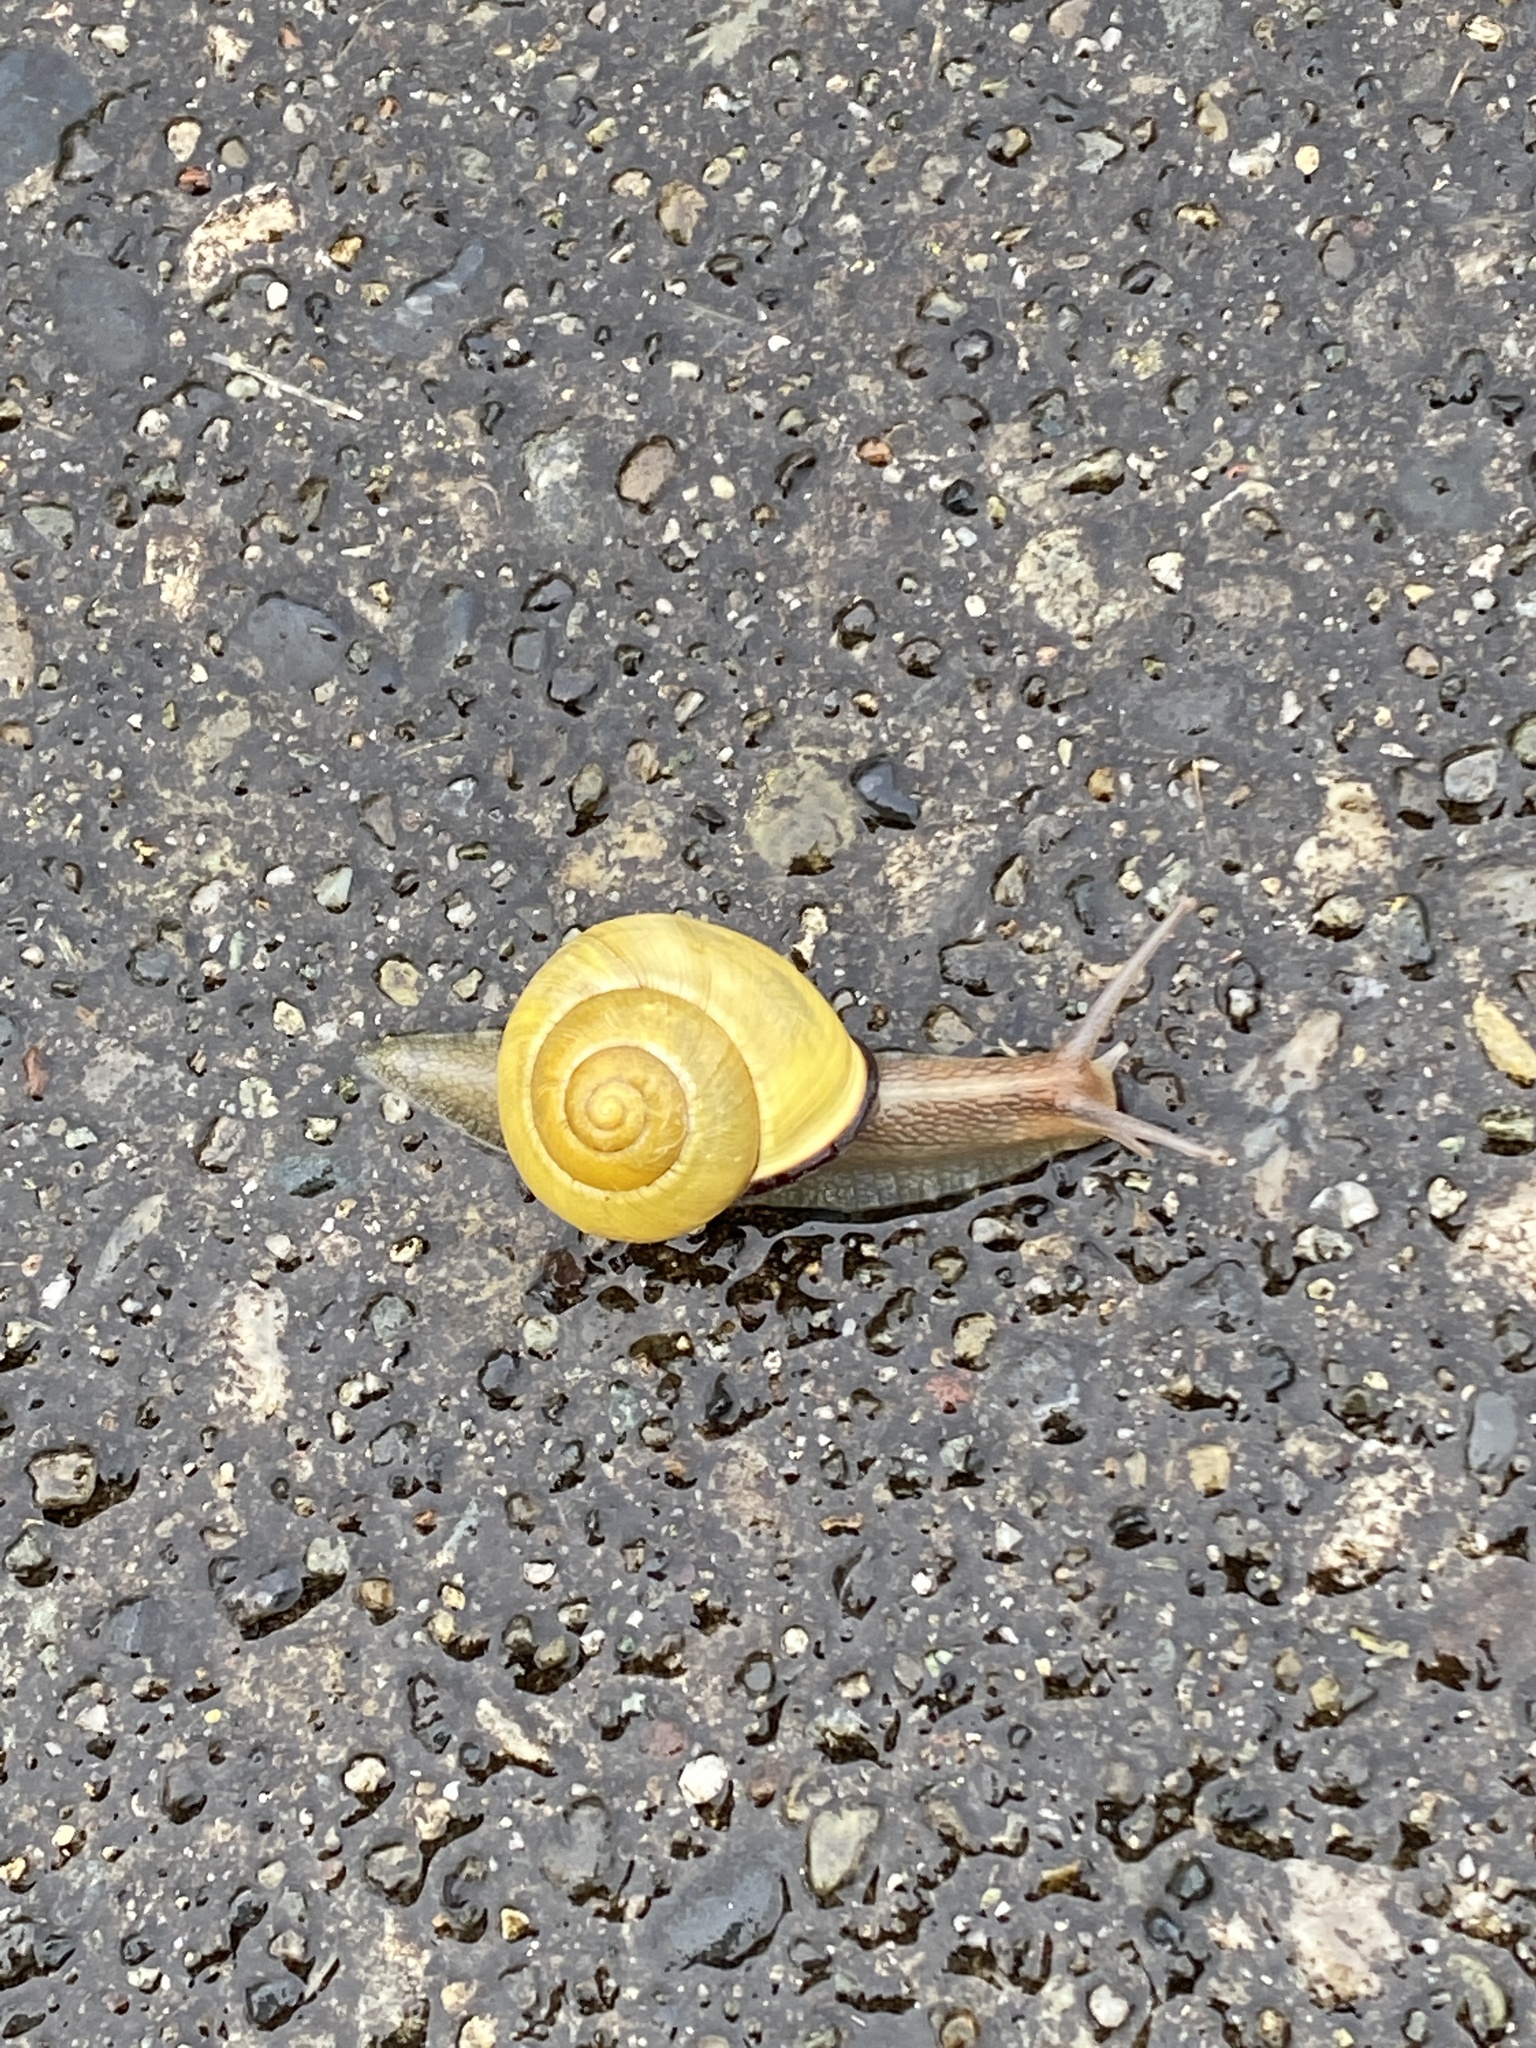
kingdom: Animalia
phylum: Mollusca
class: Gastropoda
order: Stylommatophora
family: Helicidae
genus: Cepaea
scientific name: Cepaea nemoralis
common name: Grovesnail
